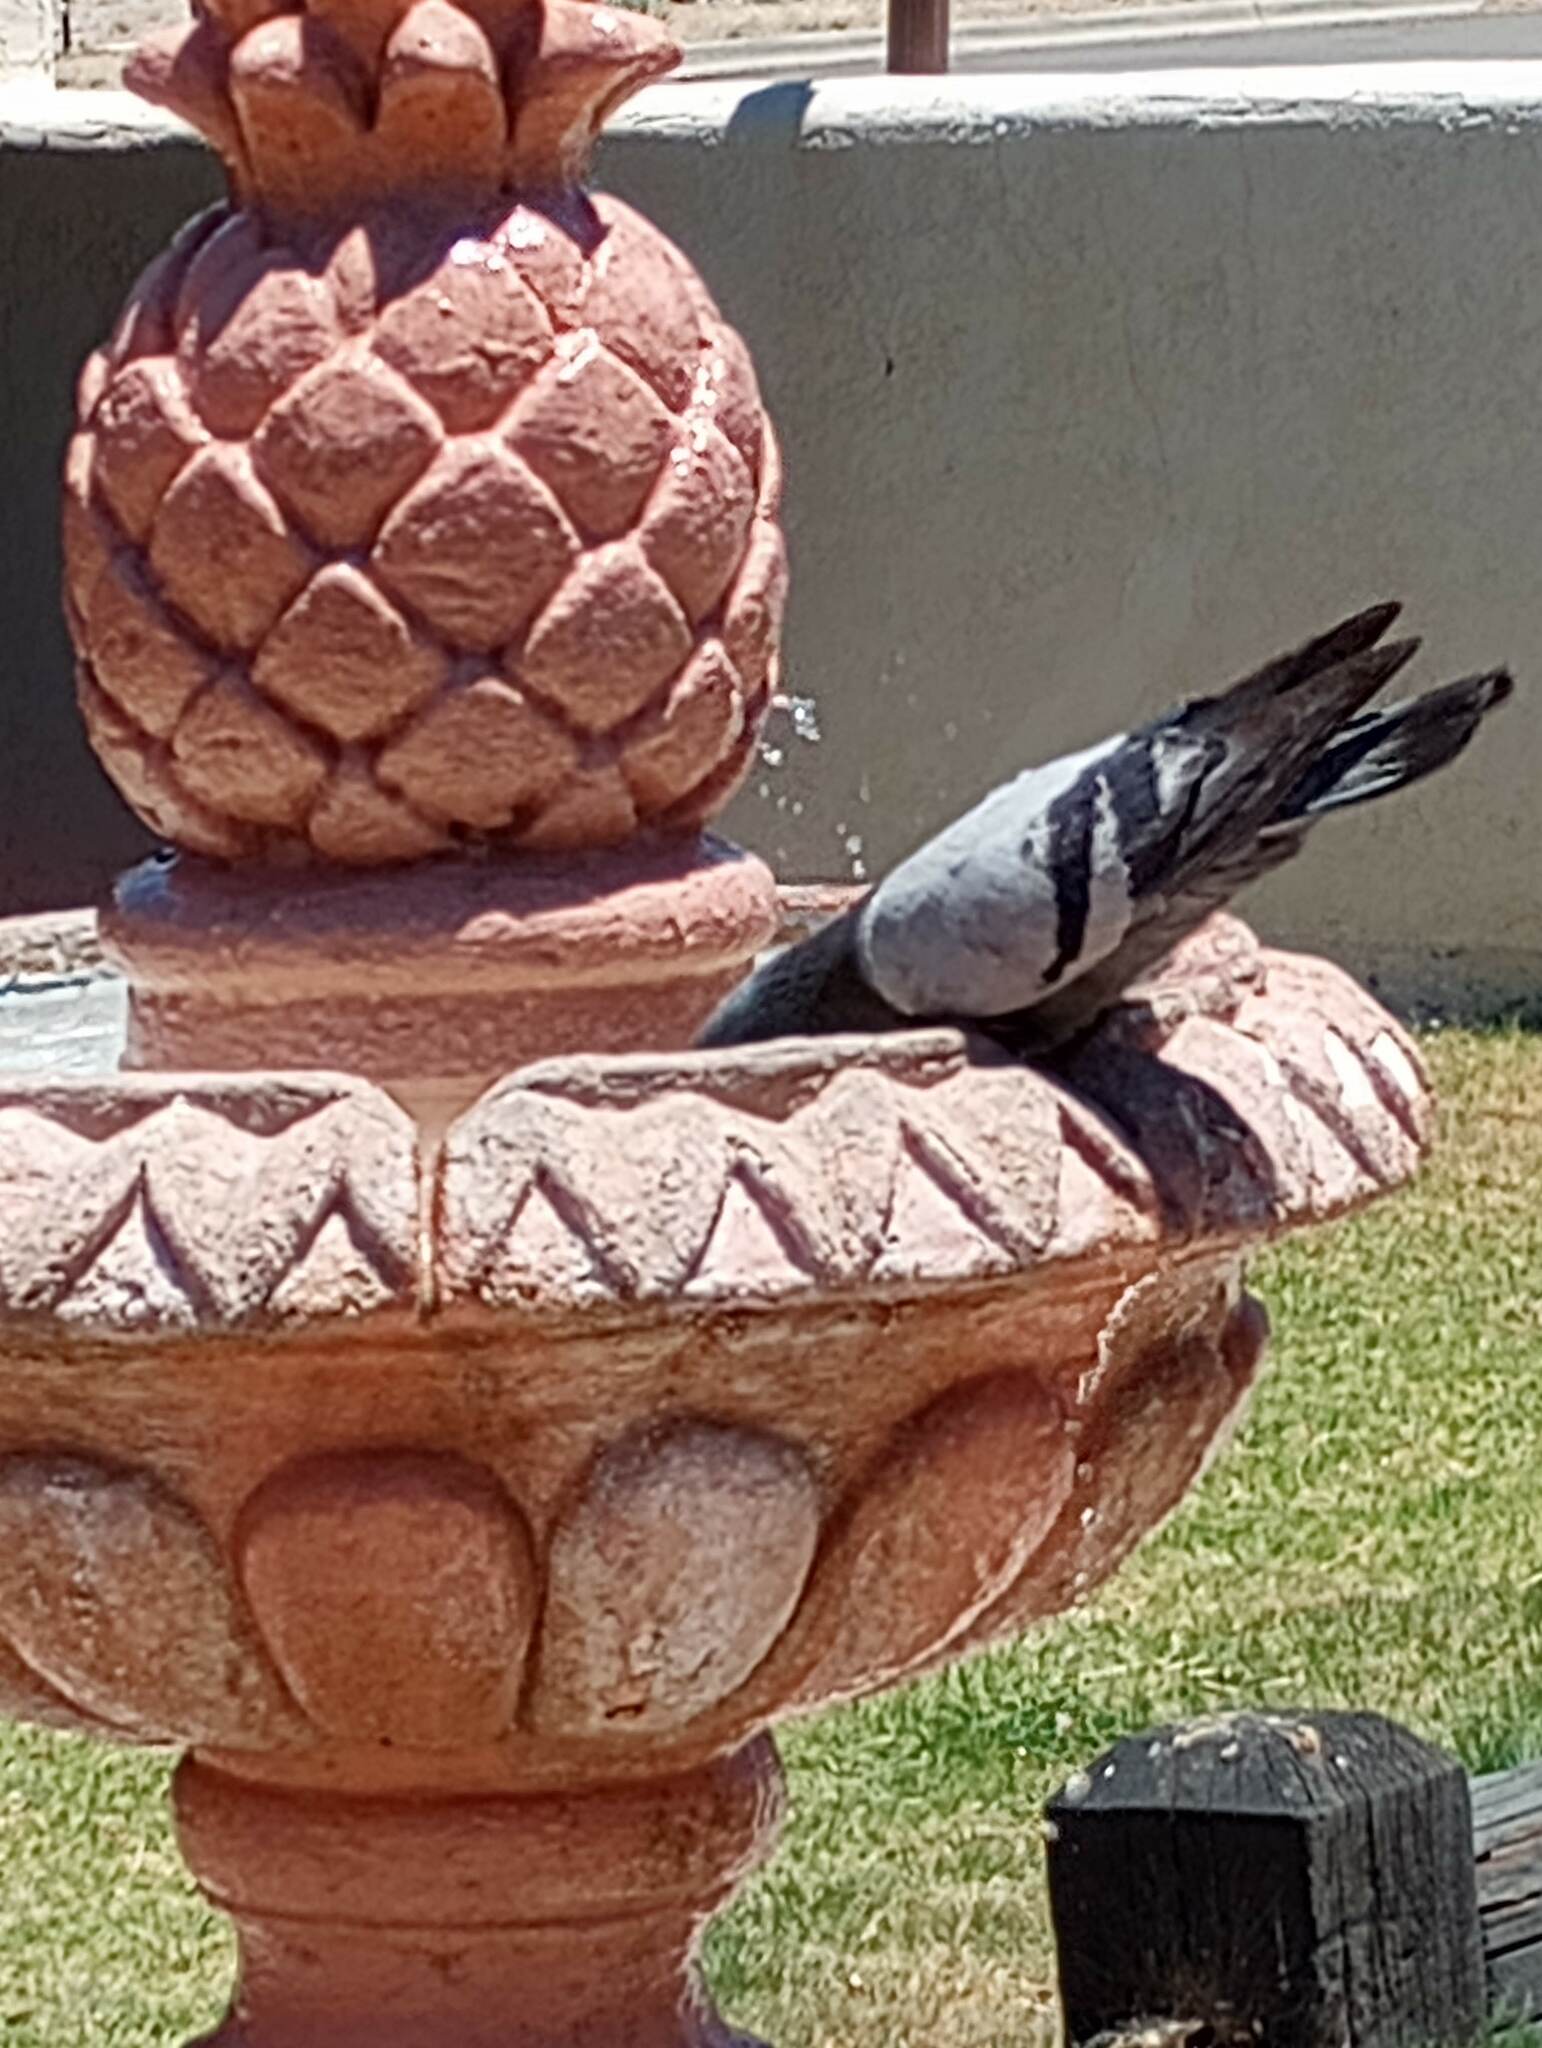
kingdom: Animalia
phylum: Chordata
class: Aves
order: Columbiformes
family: Columbidae
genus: Columba
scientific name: Columba livia
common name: Rock pigeon
